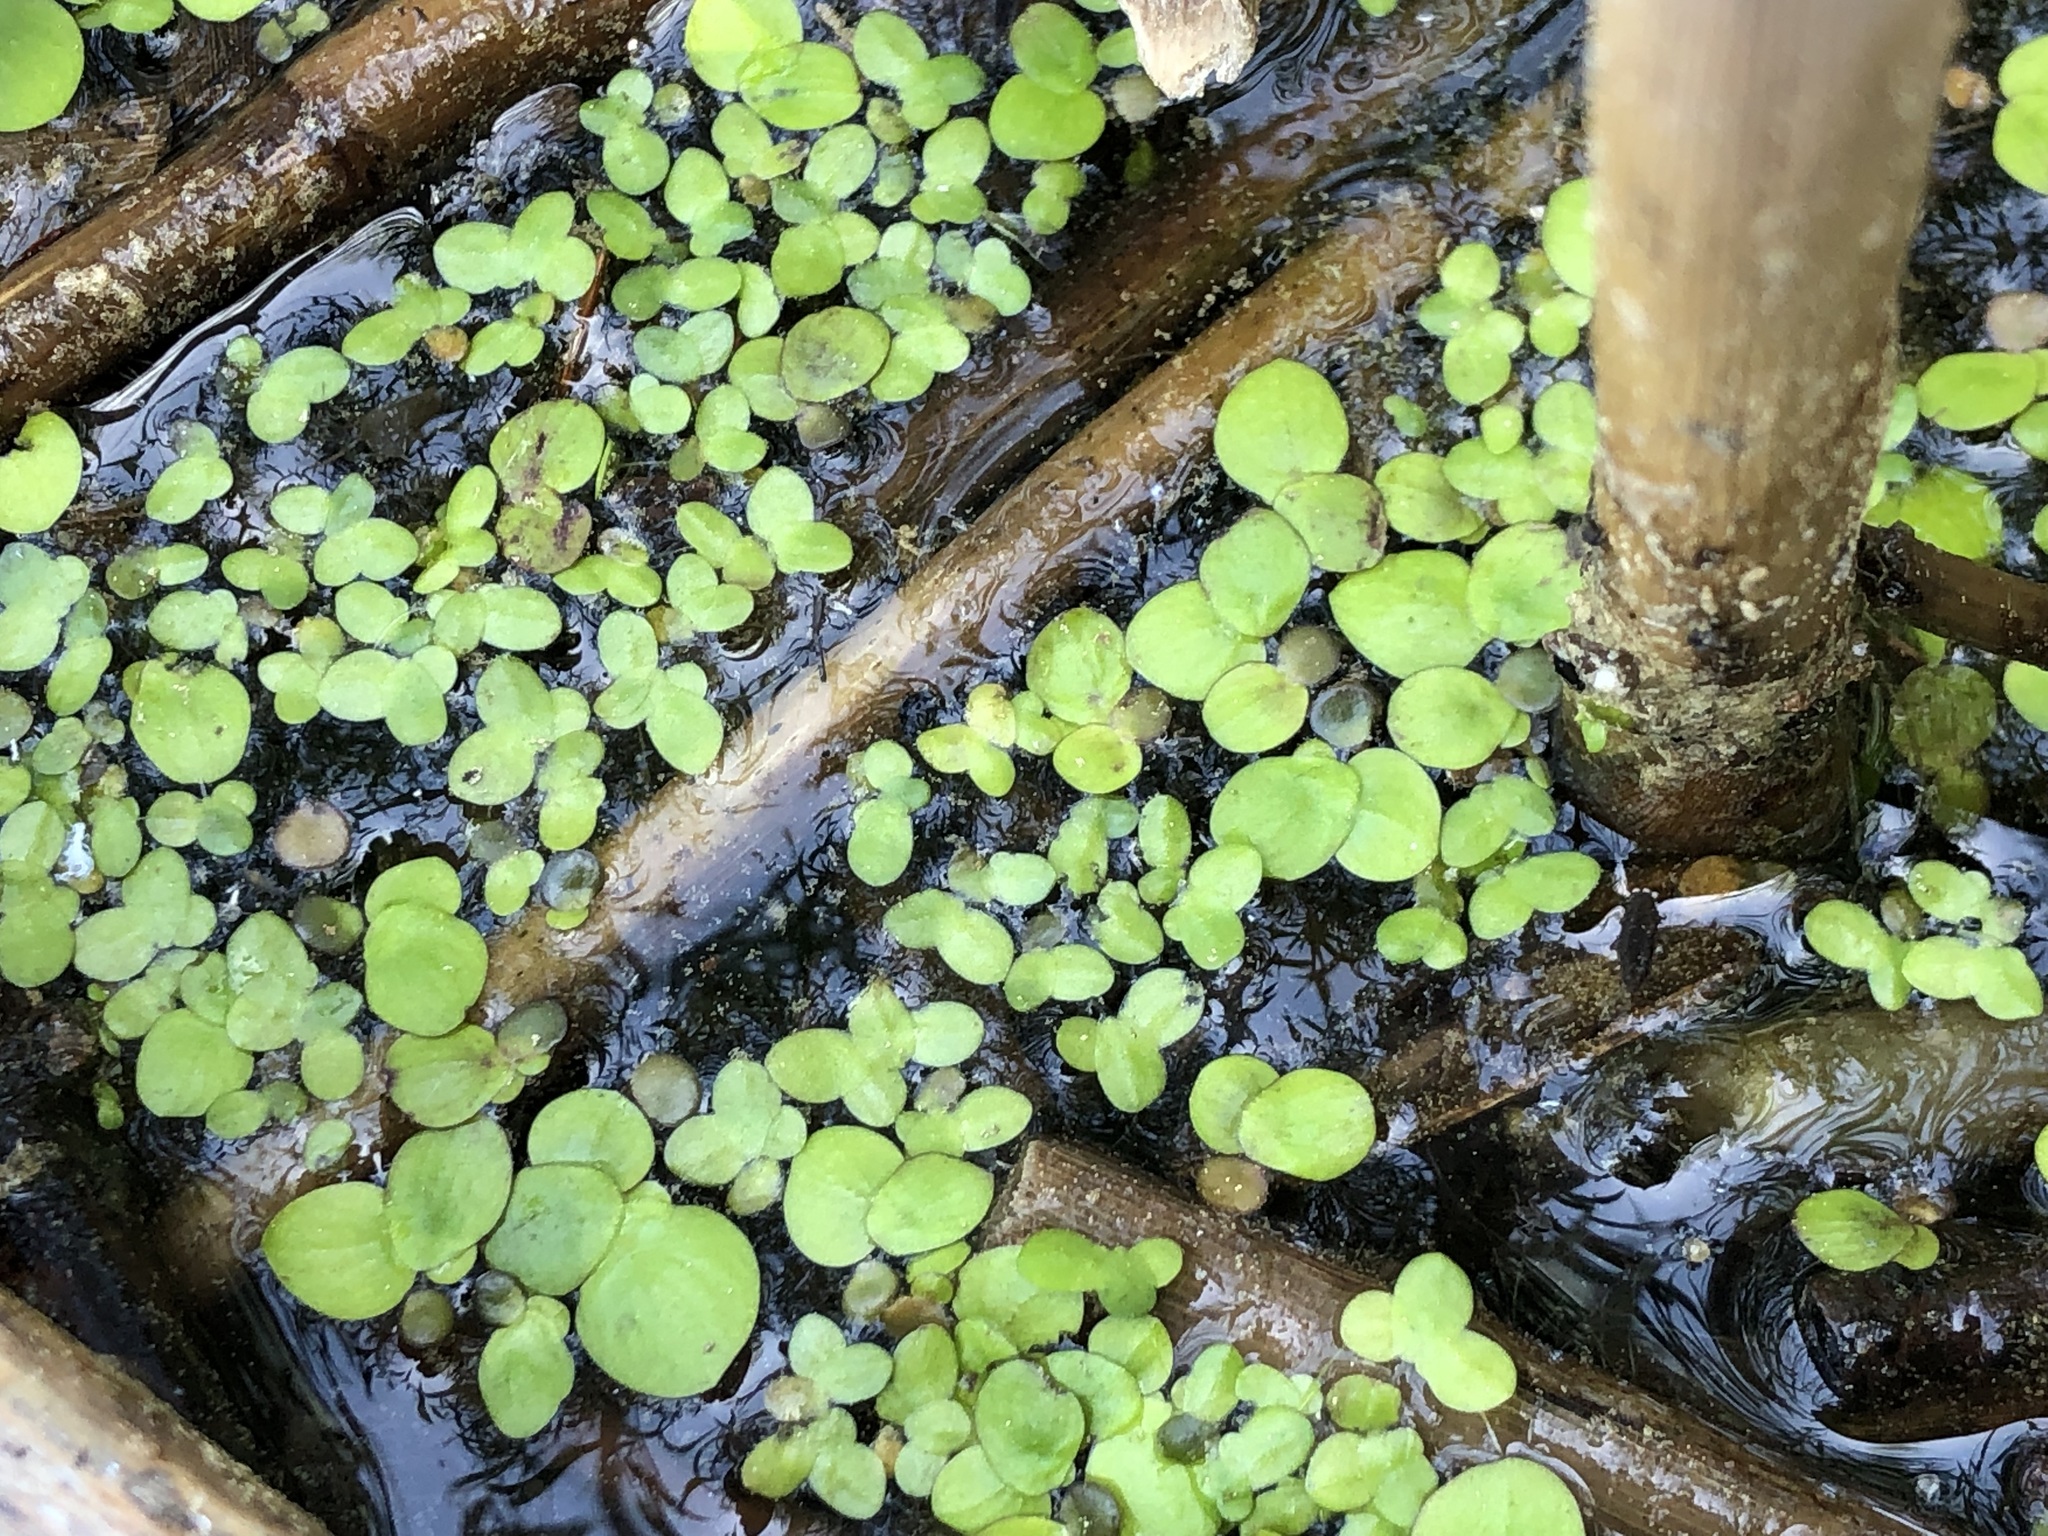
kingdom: Plantae
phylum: Tracheophyta
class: Liliopsida
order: Alismatales
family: Araceae
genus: Spirodela
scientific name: Spirodela polyrhiza
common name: Great duckweed
